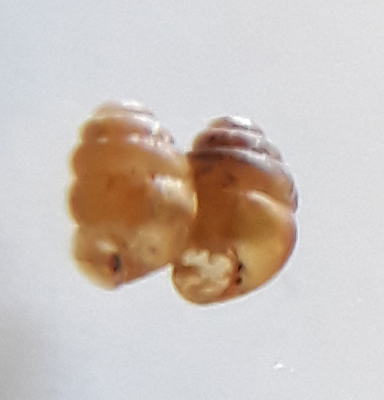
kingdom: Animalia
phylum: Mollusca
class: Gastropoda
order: Stylommatophora
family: Vertiginidae
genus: Vertigo
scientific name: Vertigo pusilla
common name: Wall whorl snail
